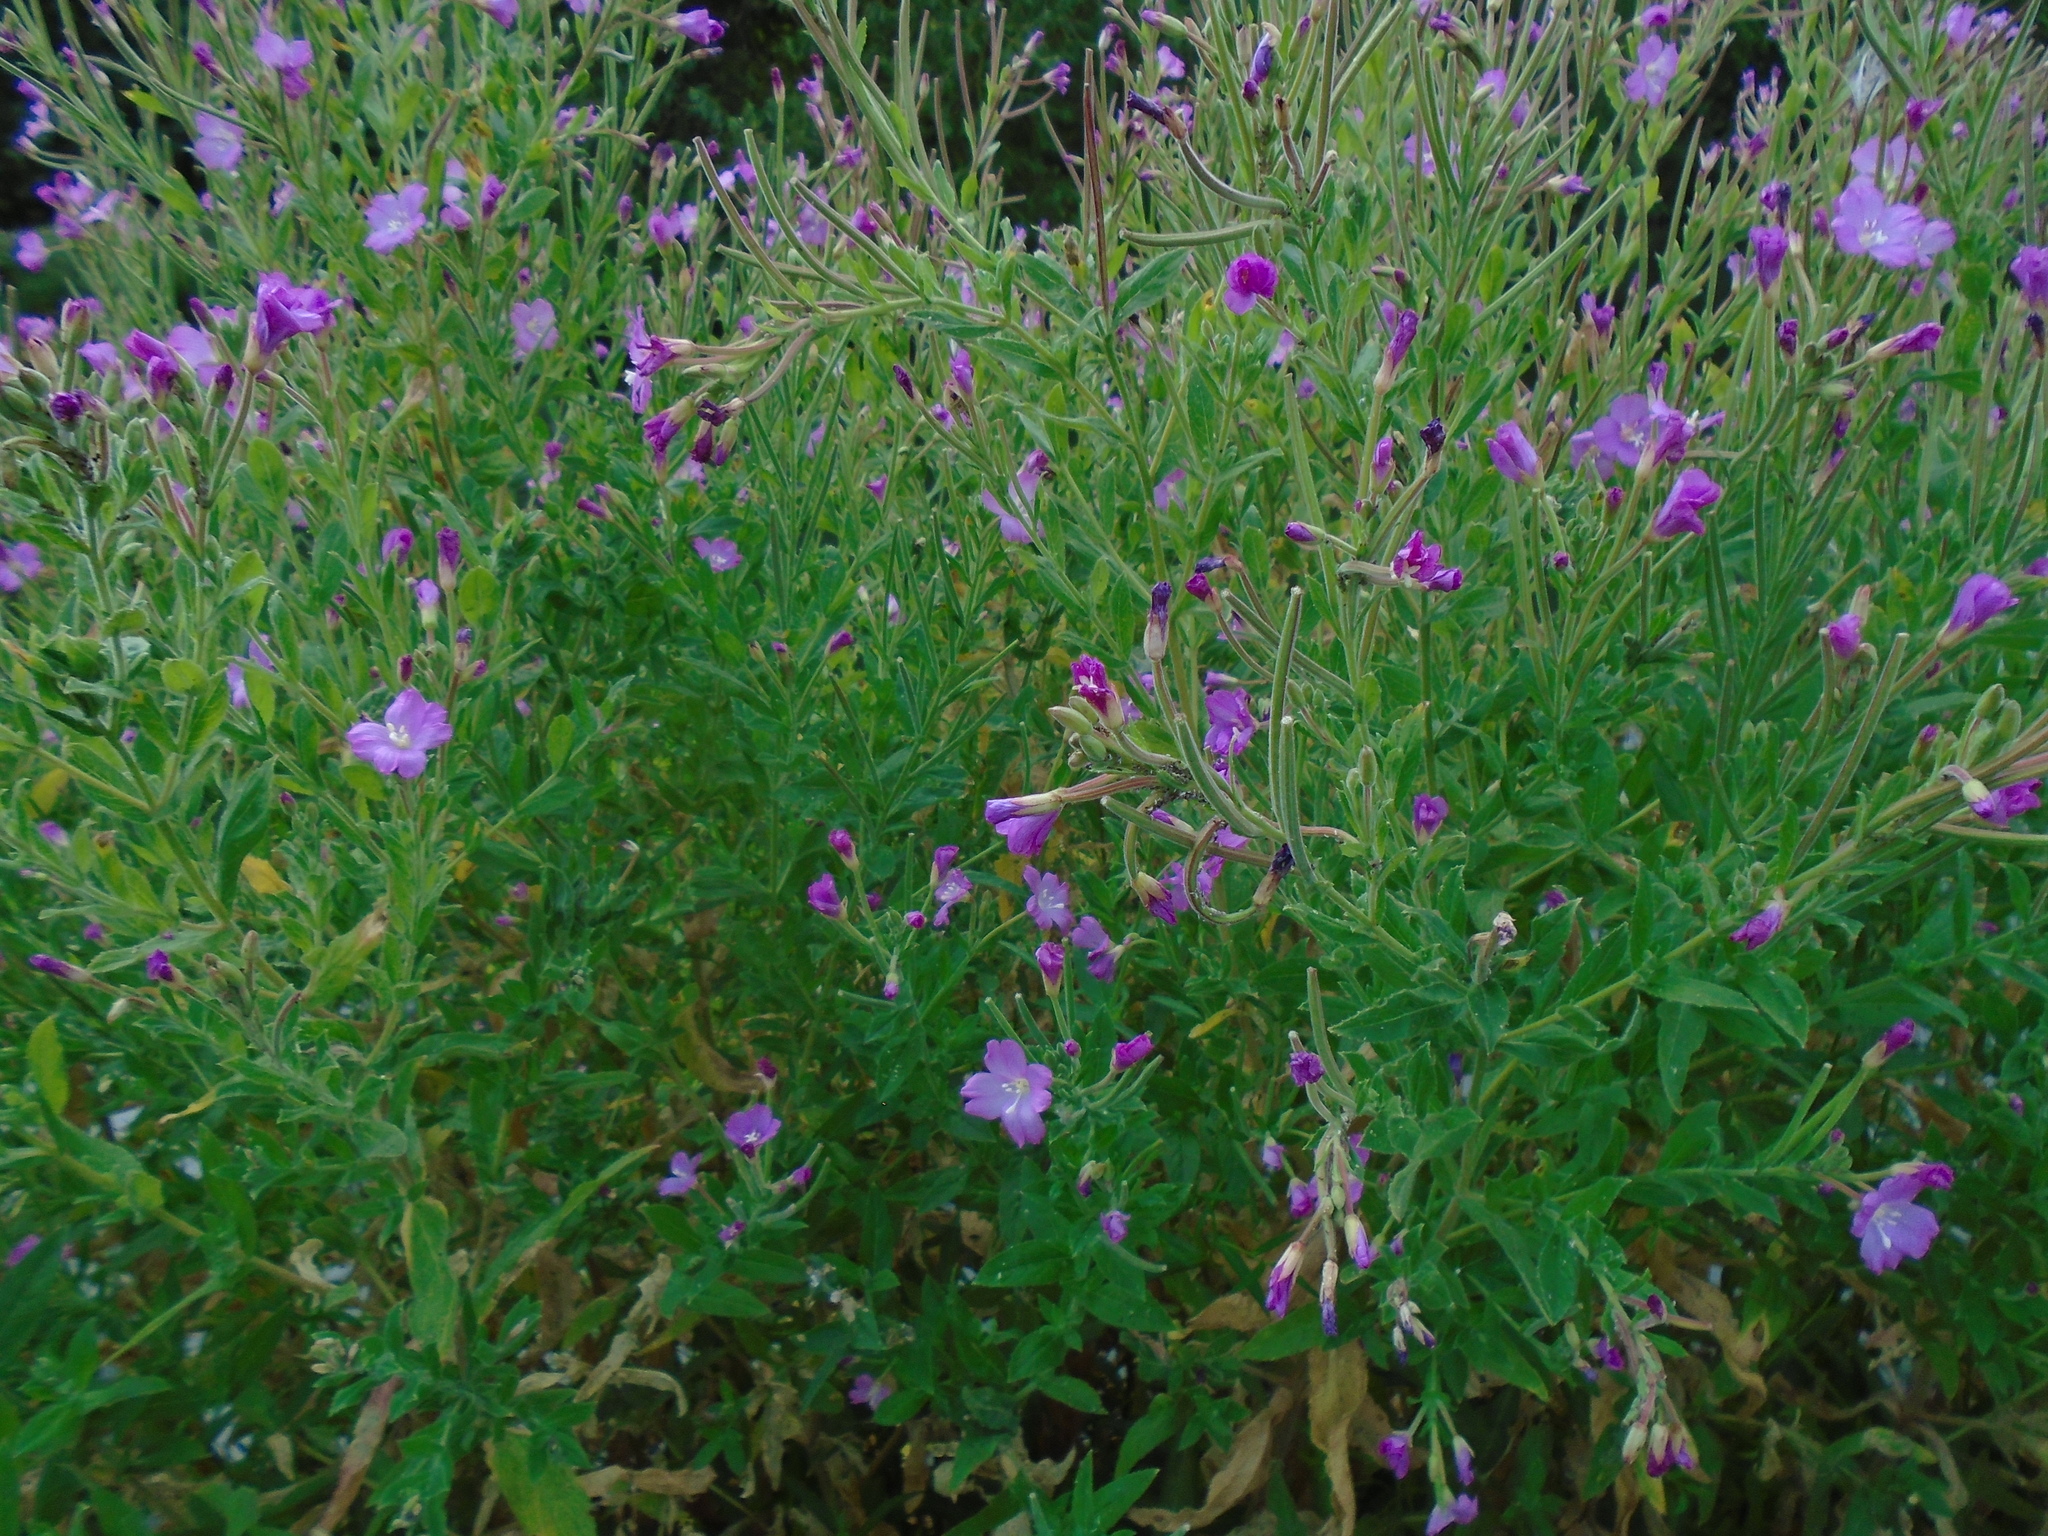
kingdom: Plantae
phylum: Tracheophyta
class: Magnoliopsida
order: Myrtales
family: Onagraceae
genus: Epilobium
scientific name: Epilobium hirsutum
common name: Great willowherb
